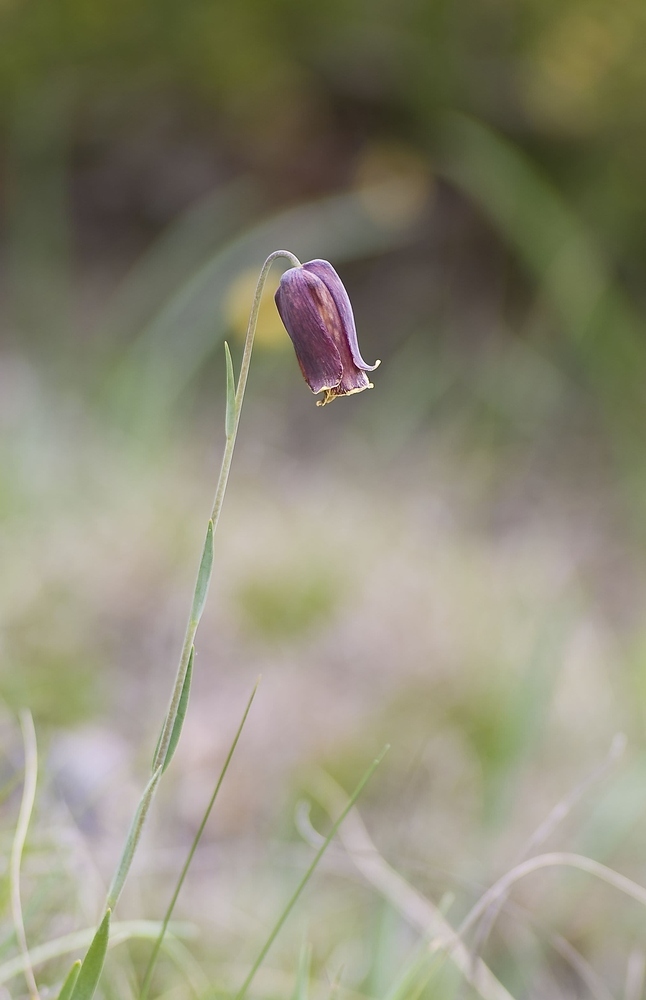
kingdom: Plantae
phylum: Tracheophyta
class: Liliopsida
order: Liliales
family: Liliaceae
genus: Fritillaria
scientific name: Fritillaria pyrenaica
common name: Pyrenean snake's-head
